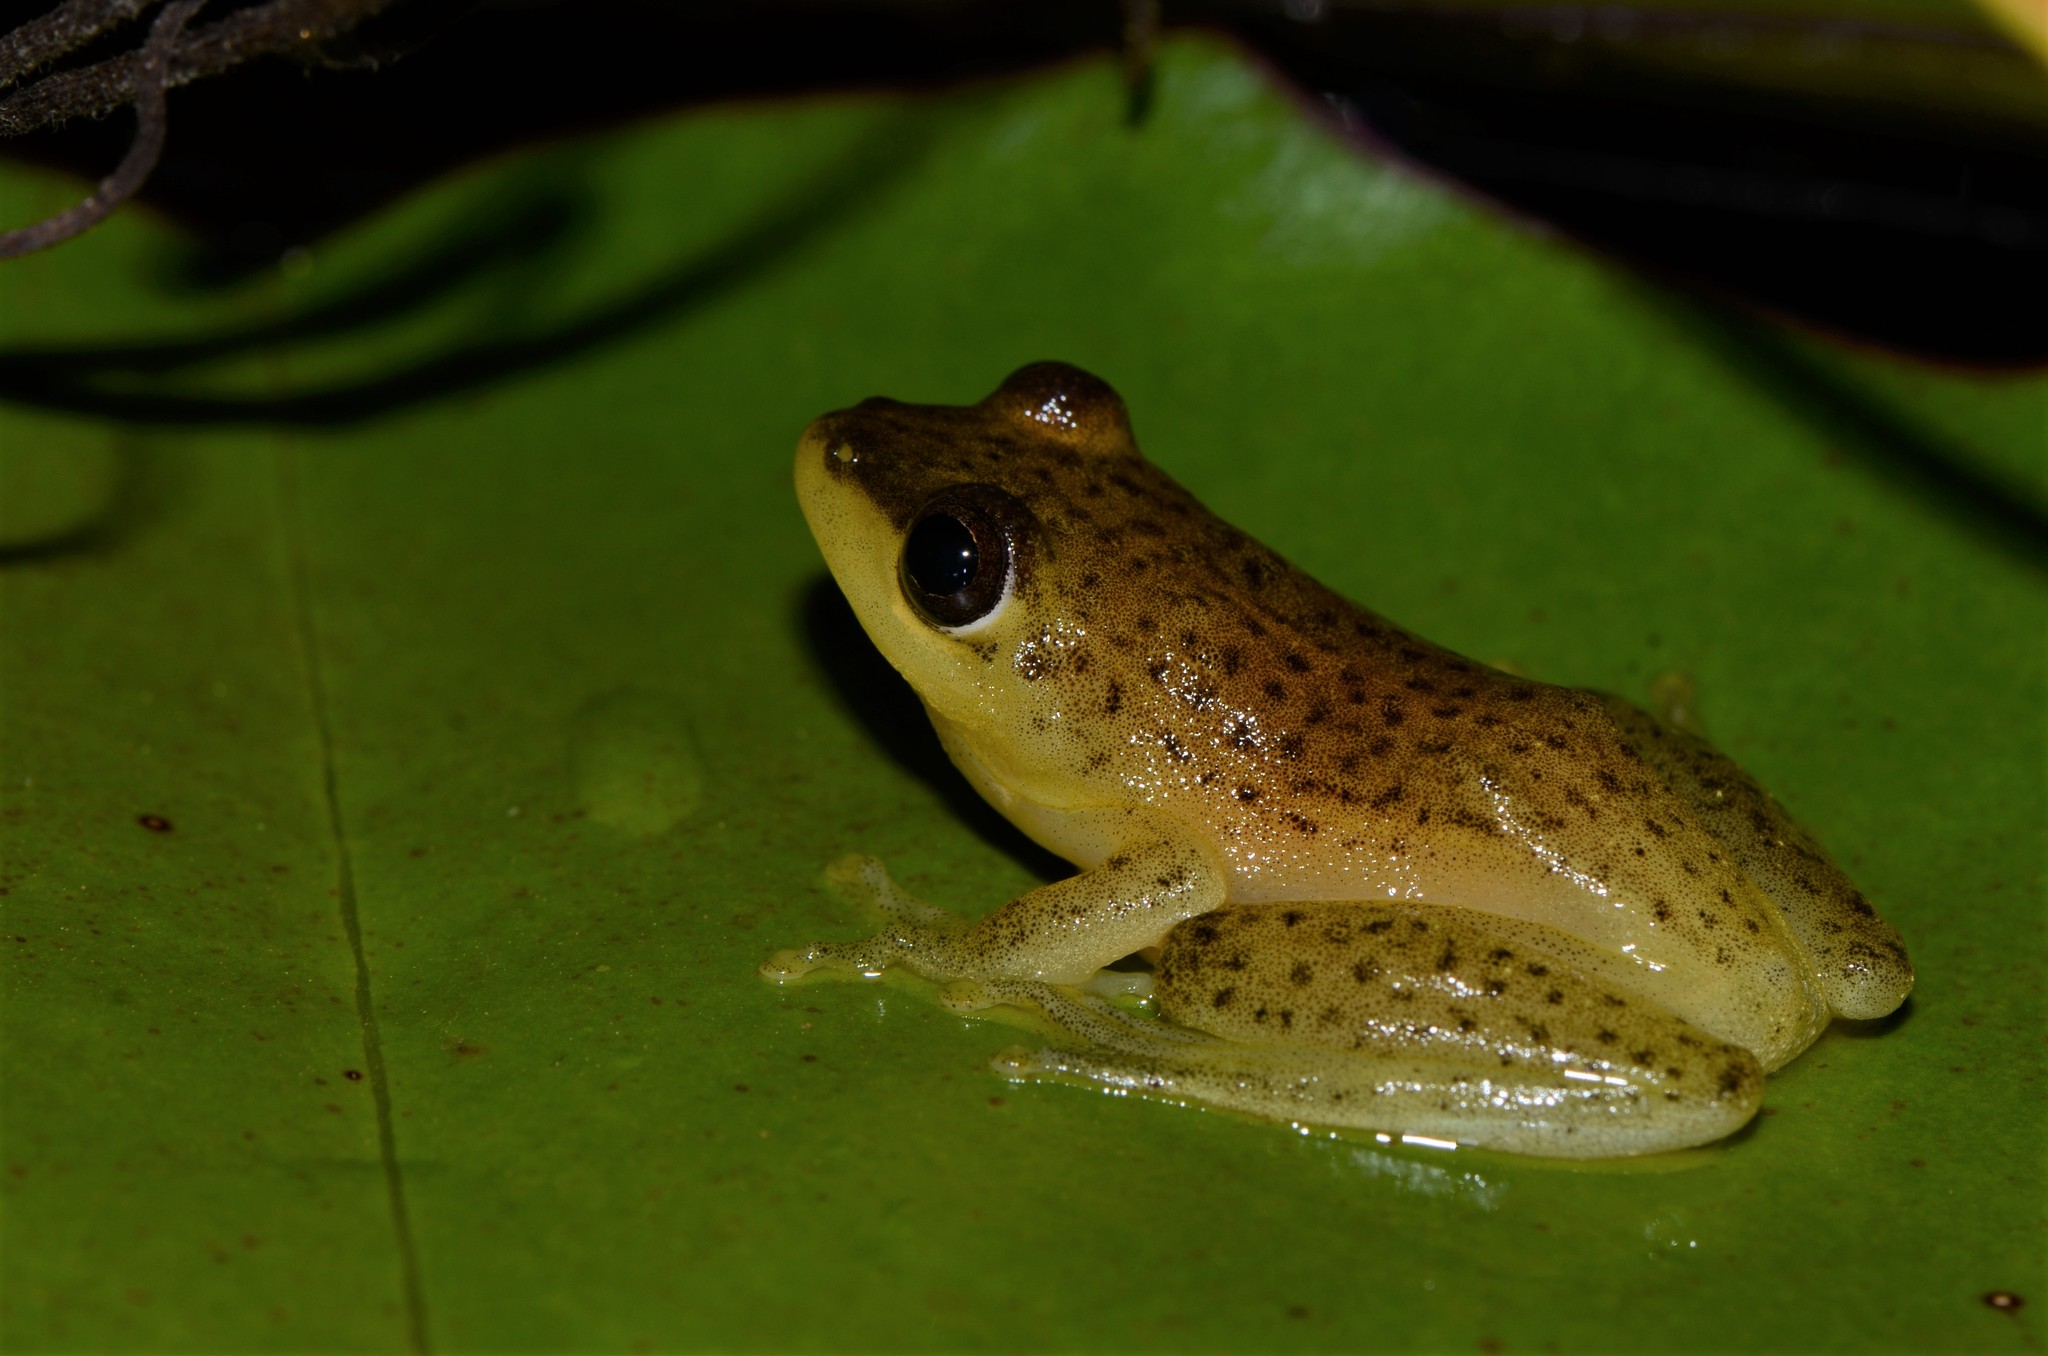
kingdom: Animalia
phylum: Chordata
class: Amphibia
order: Anura
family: Hyperoliidae
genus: Hyperolius
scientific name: Hyperolius argus
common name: Argus reed frog
